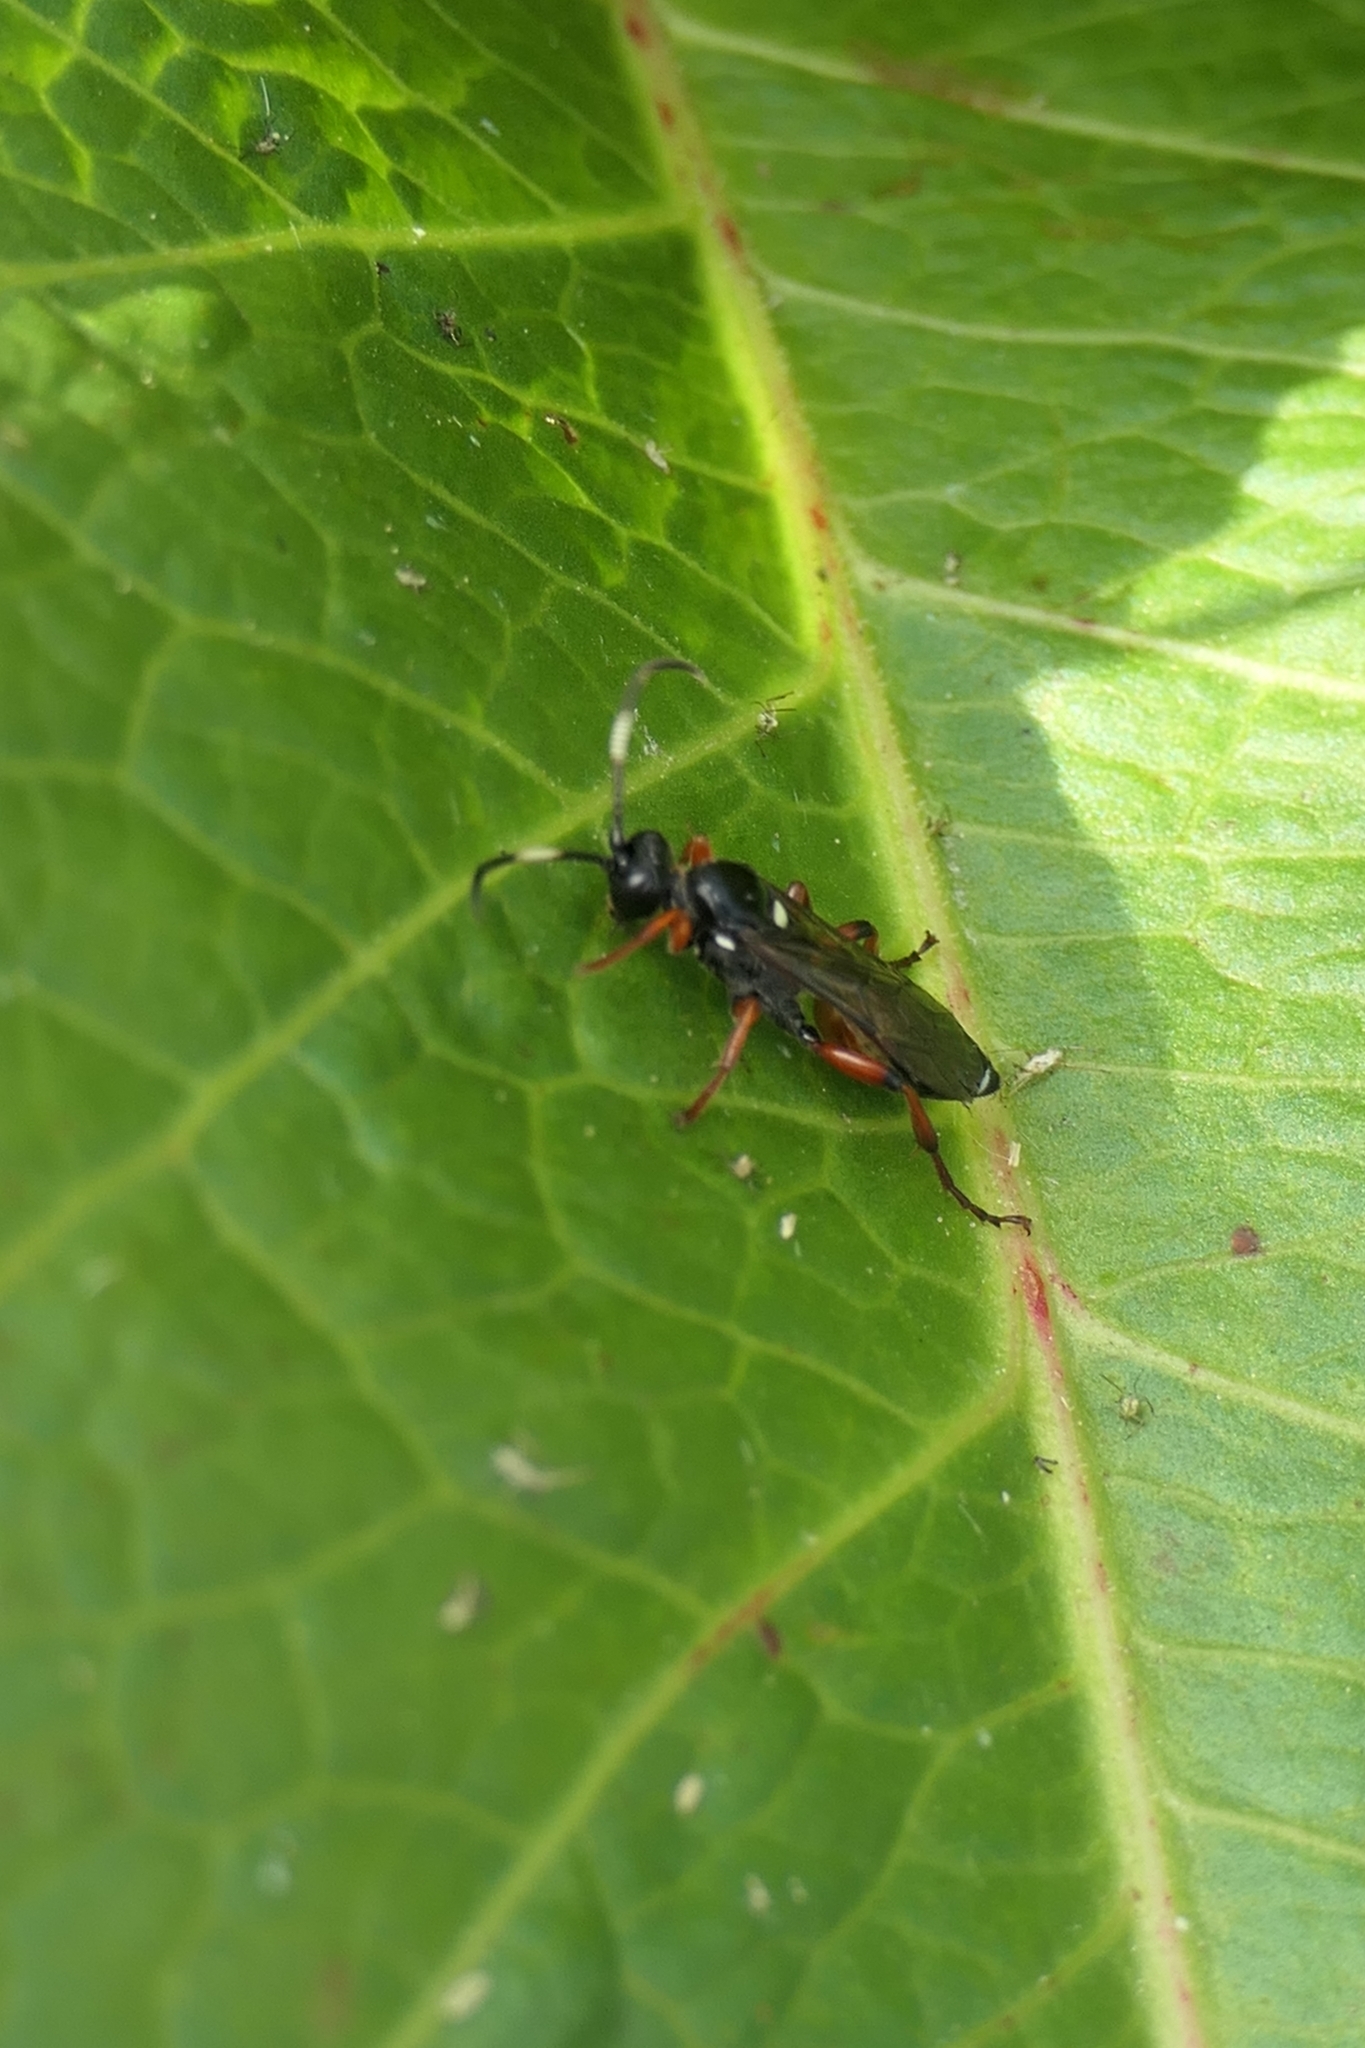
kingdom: Animalia
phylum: Arthropoda
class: Insecta
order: Hymenoptera
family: Ichneumonidae
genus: Ichneumon
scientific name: Ichneumon promissorius
